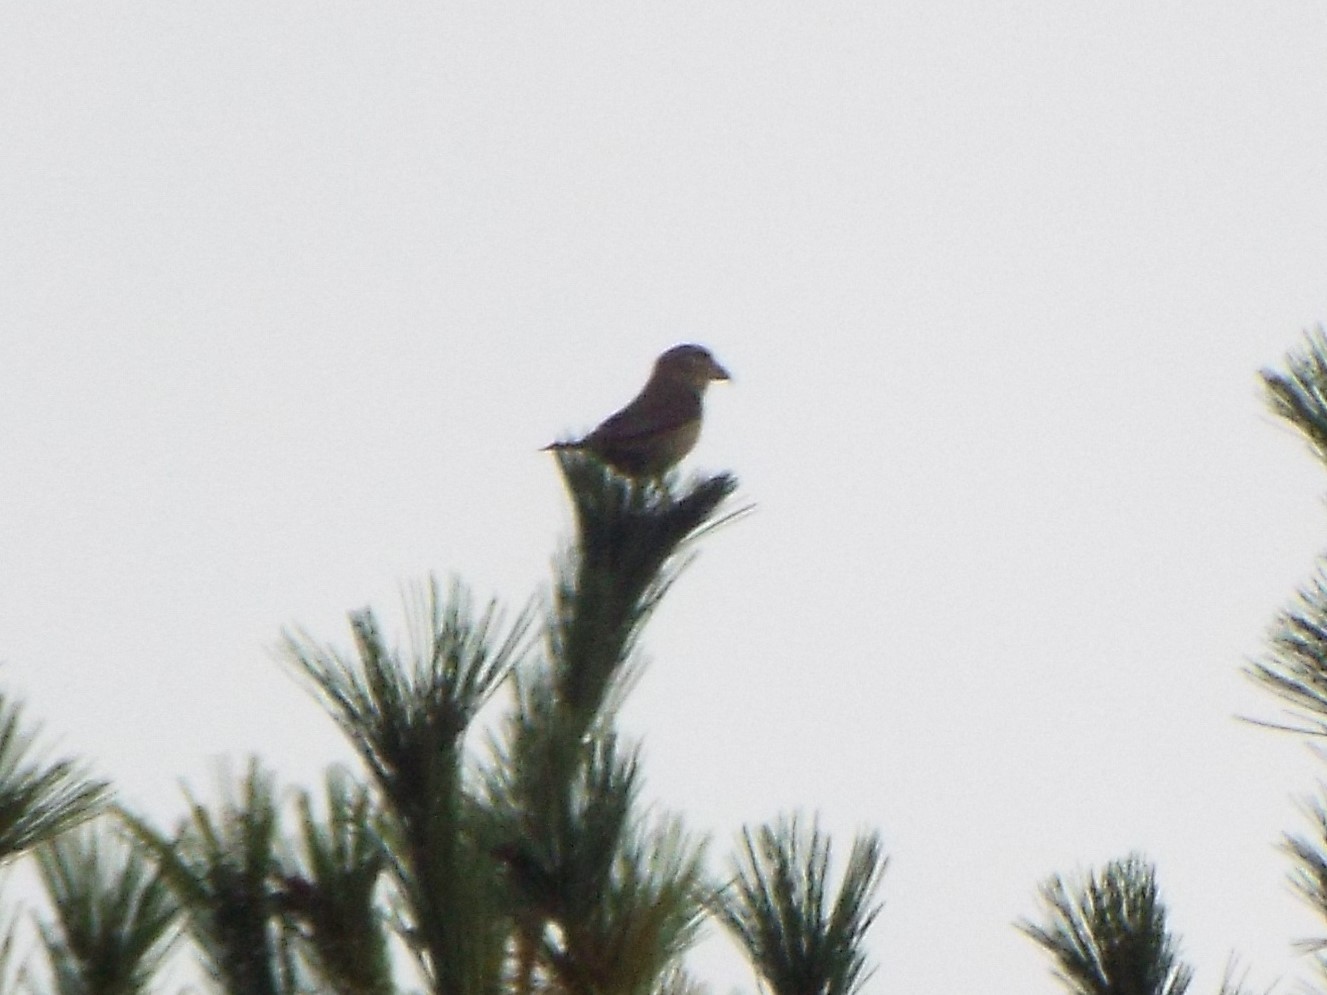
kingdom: Animalia
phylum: Chordata
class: Aves
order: Passeriformes
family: Fringillidae
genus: Loxia
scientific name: Loxia curvirostra
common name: Red crossbill
